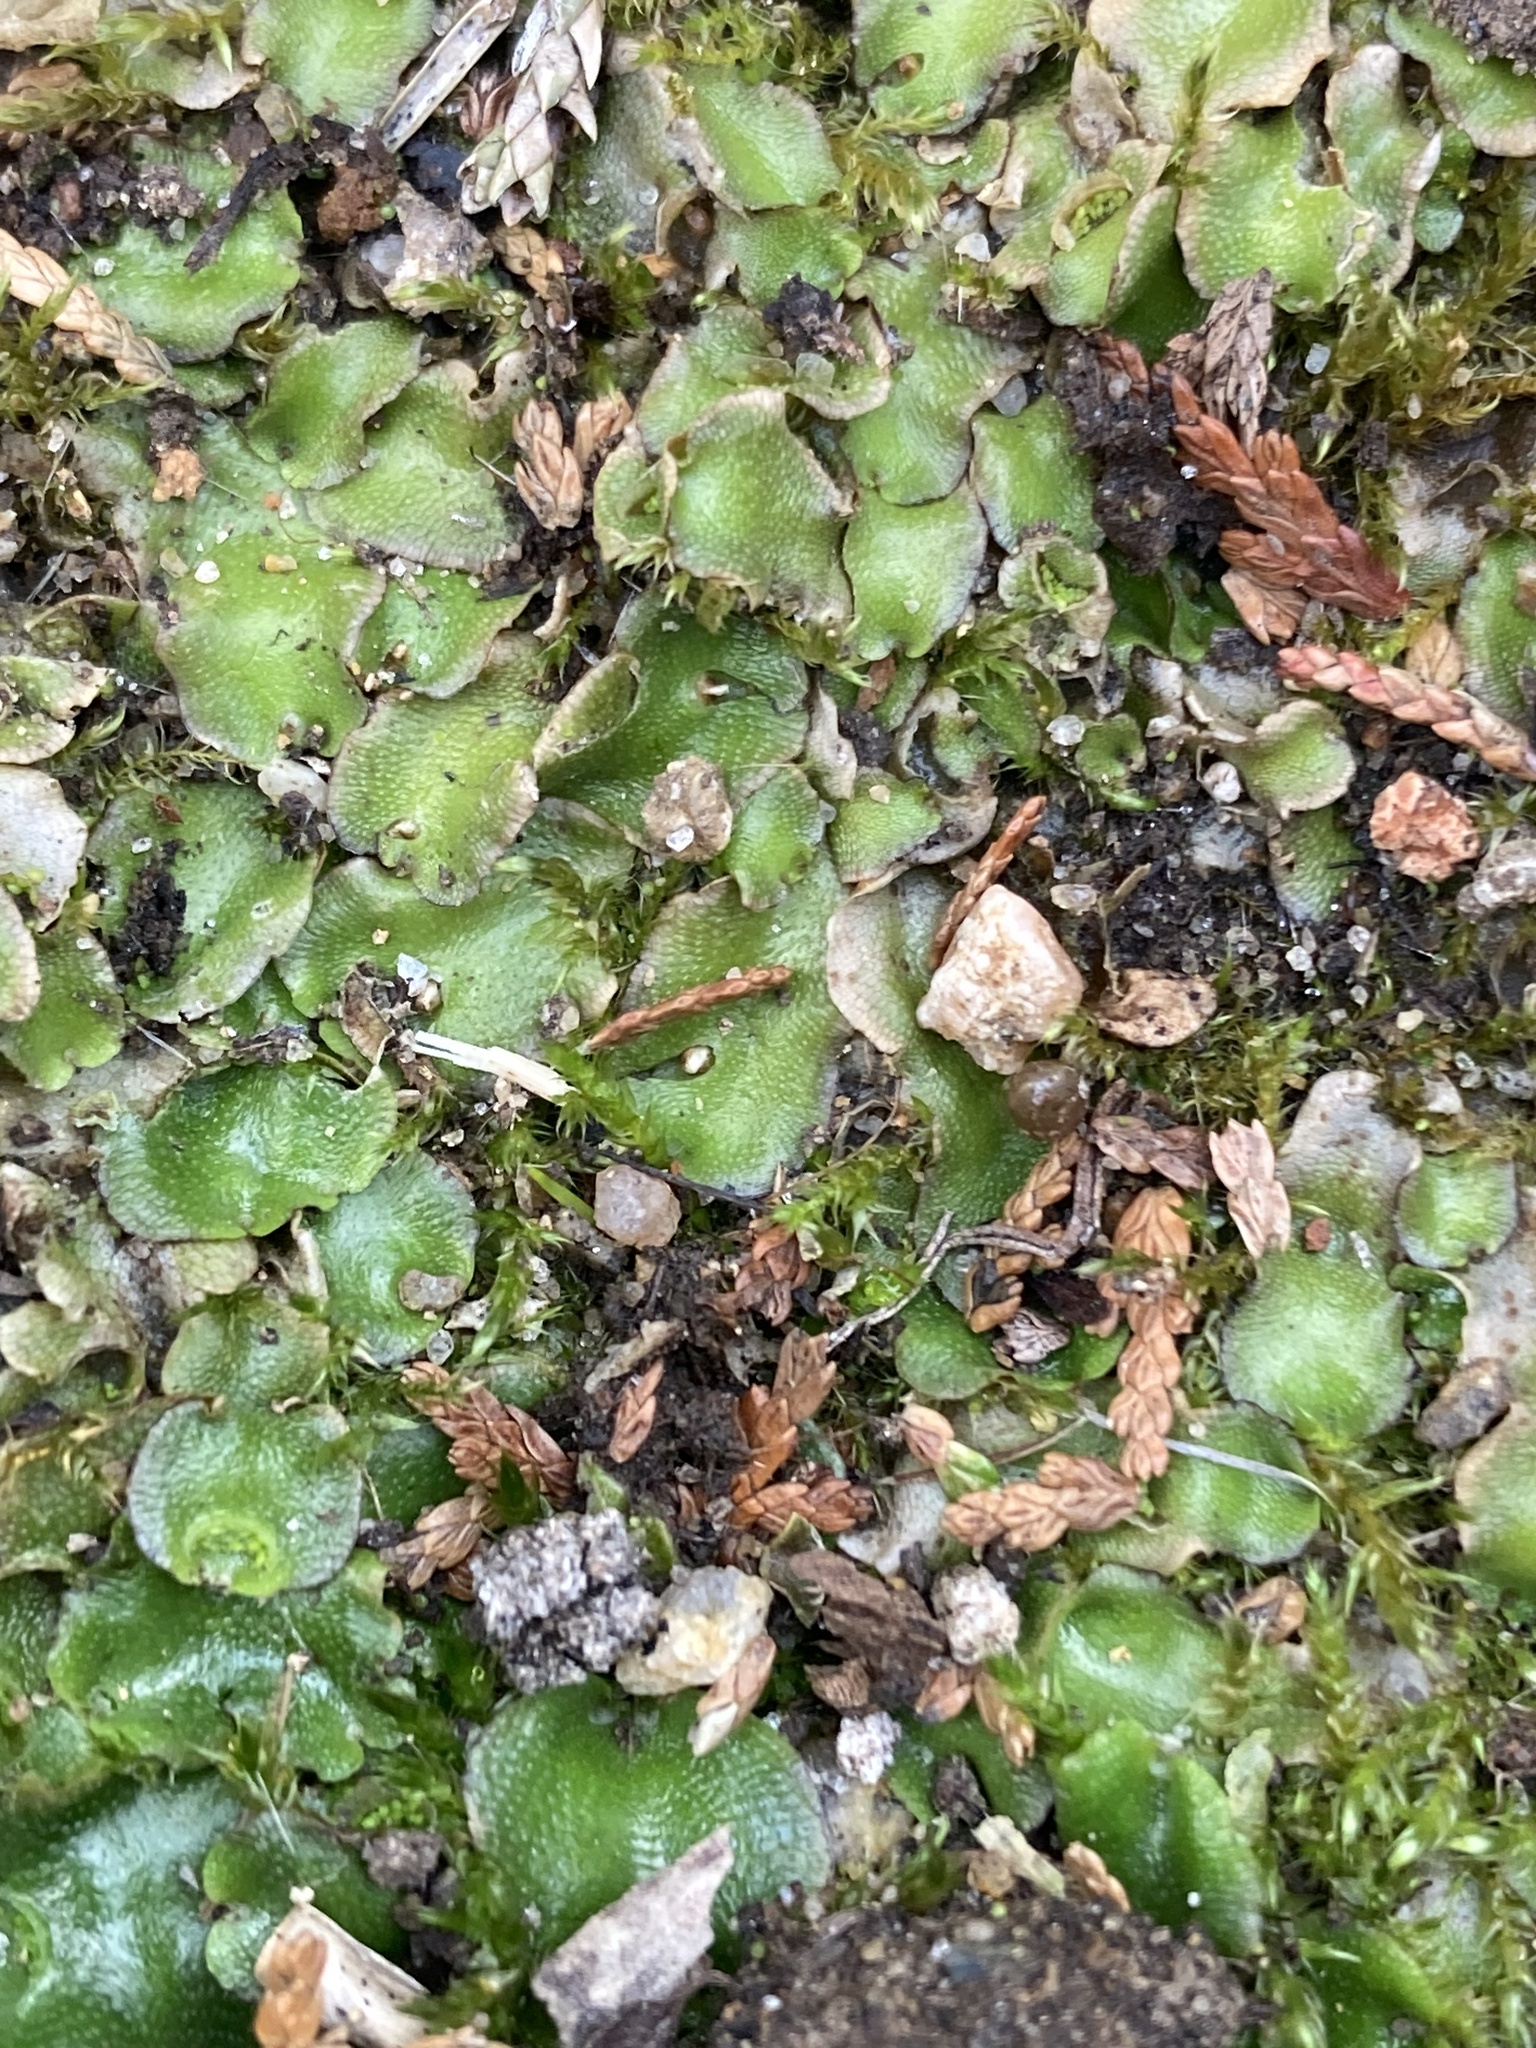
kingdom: Plantae
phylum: Marchantiophyta
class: Marchantiopsida
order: Lunulariales
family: Lunulariaceae
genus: Lunularia
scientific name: Lunularia cruciata
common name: Crescent-cup liverwort
